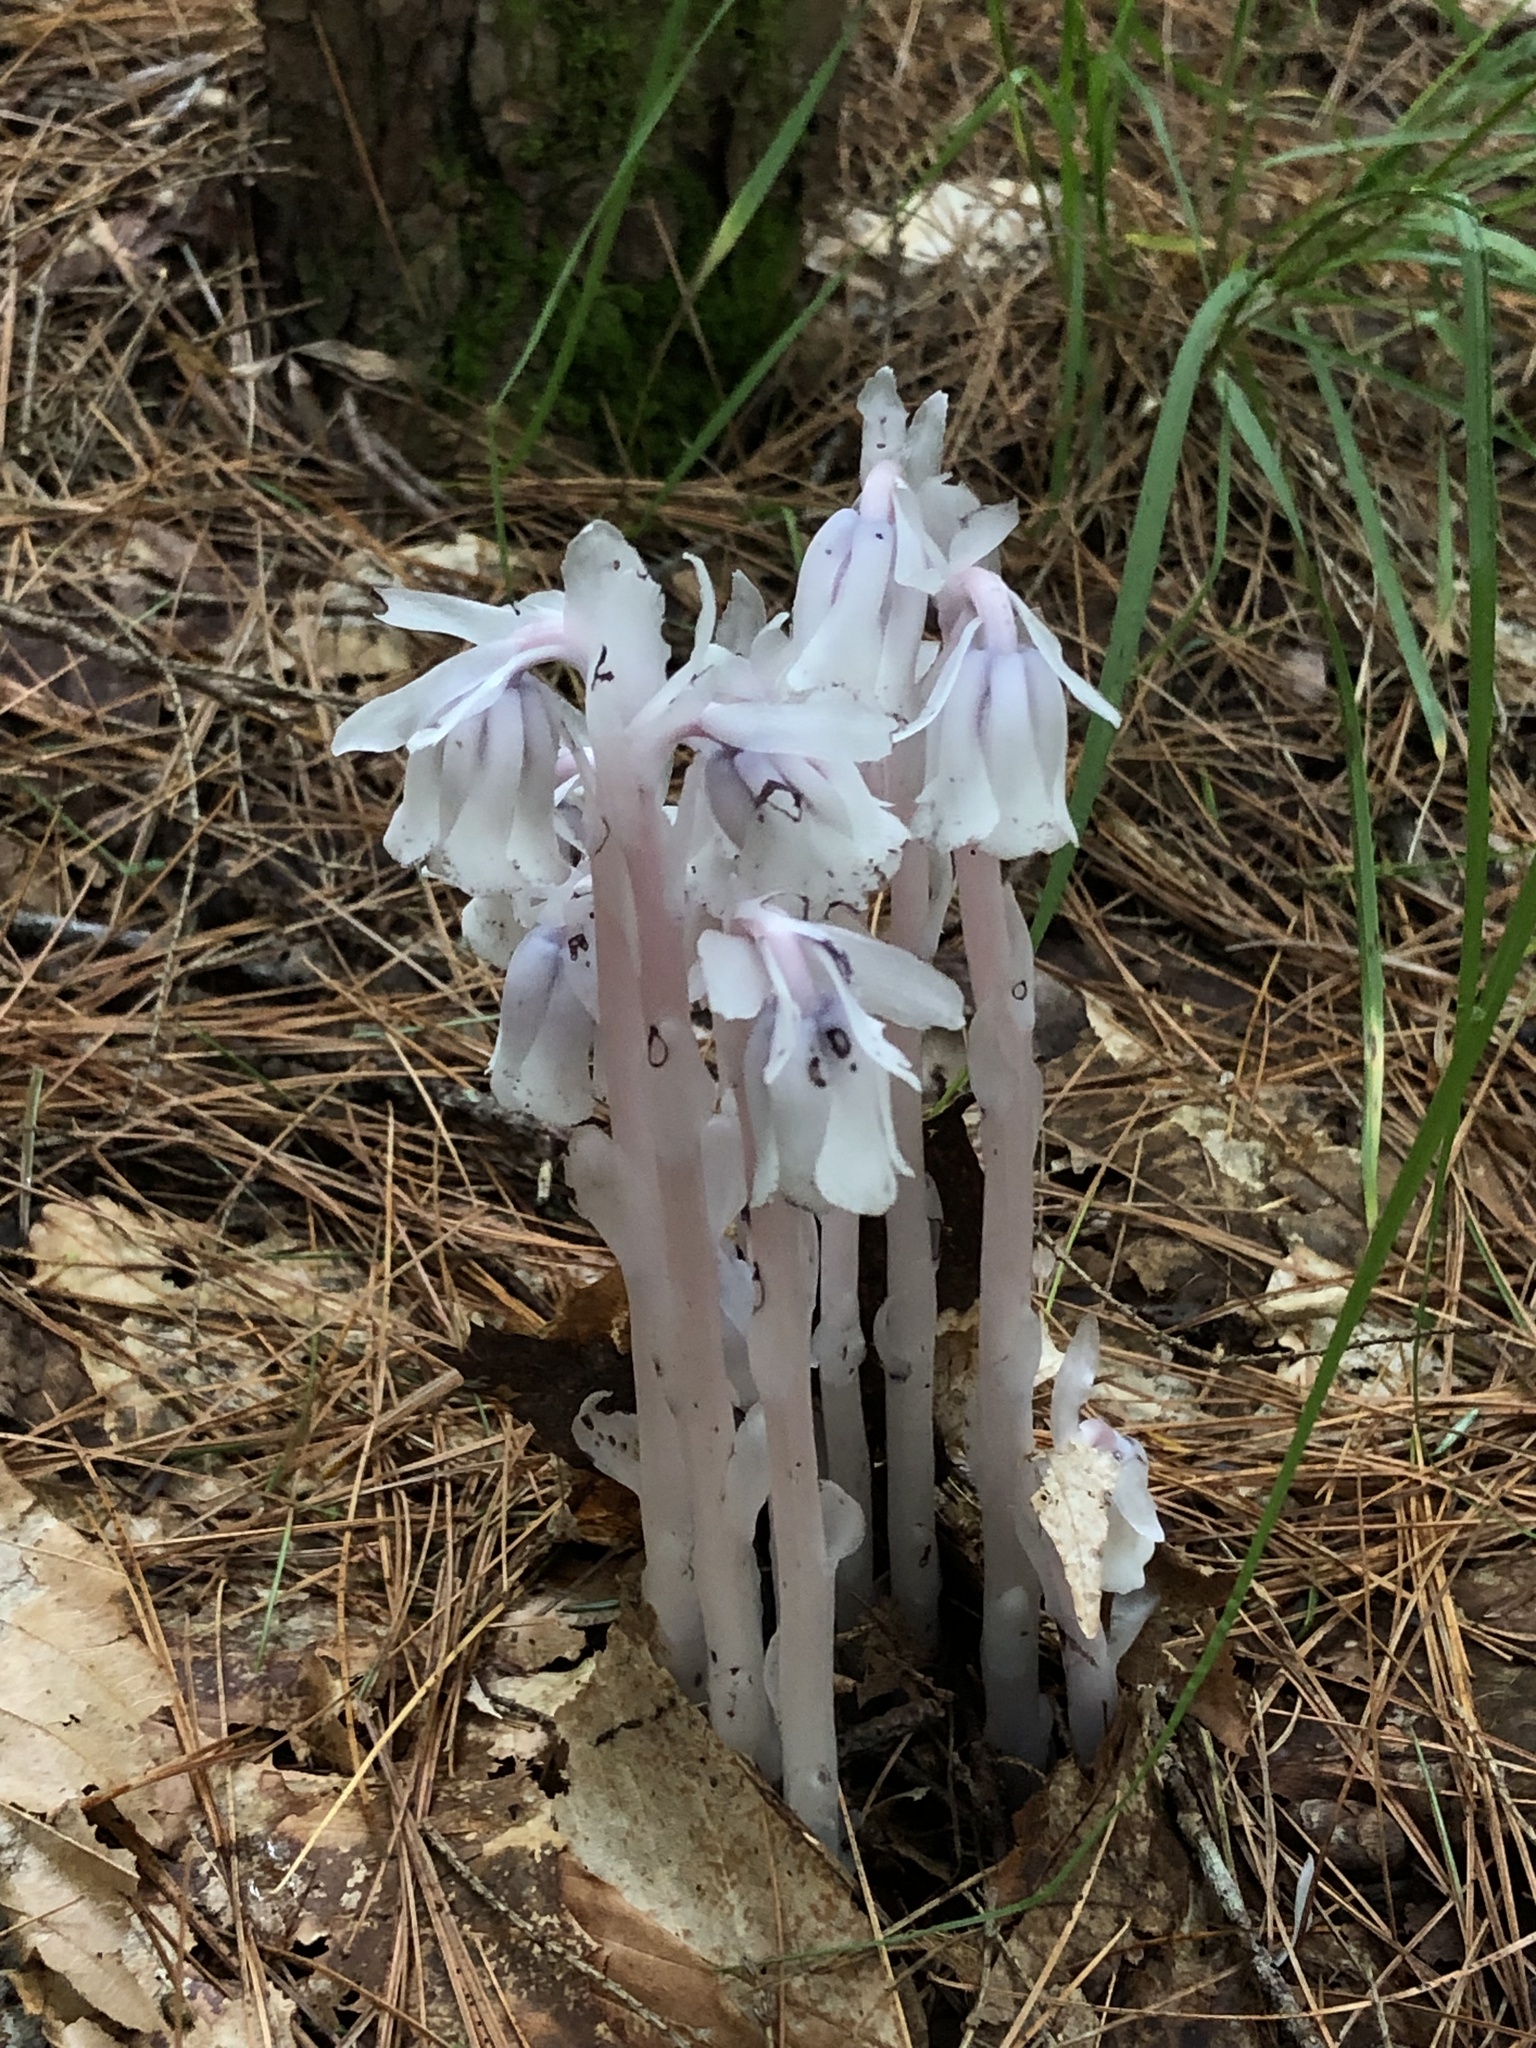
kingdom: Plantae
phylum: Tracheophyta
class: Magnoliopsida
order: Ericales
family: Ericaceae
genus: Monotropa
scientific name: Monotropa uniflora
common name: Convulsion root
